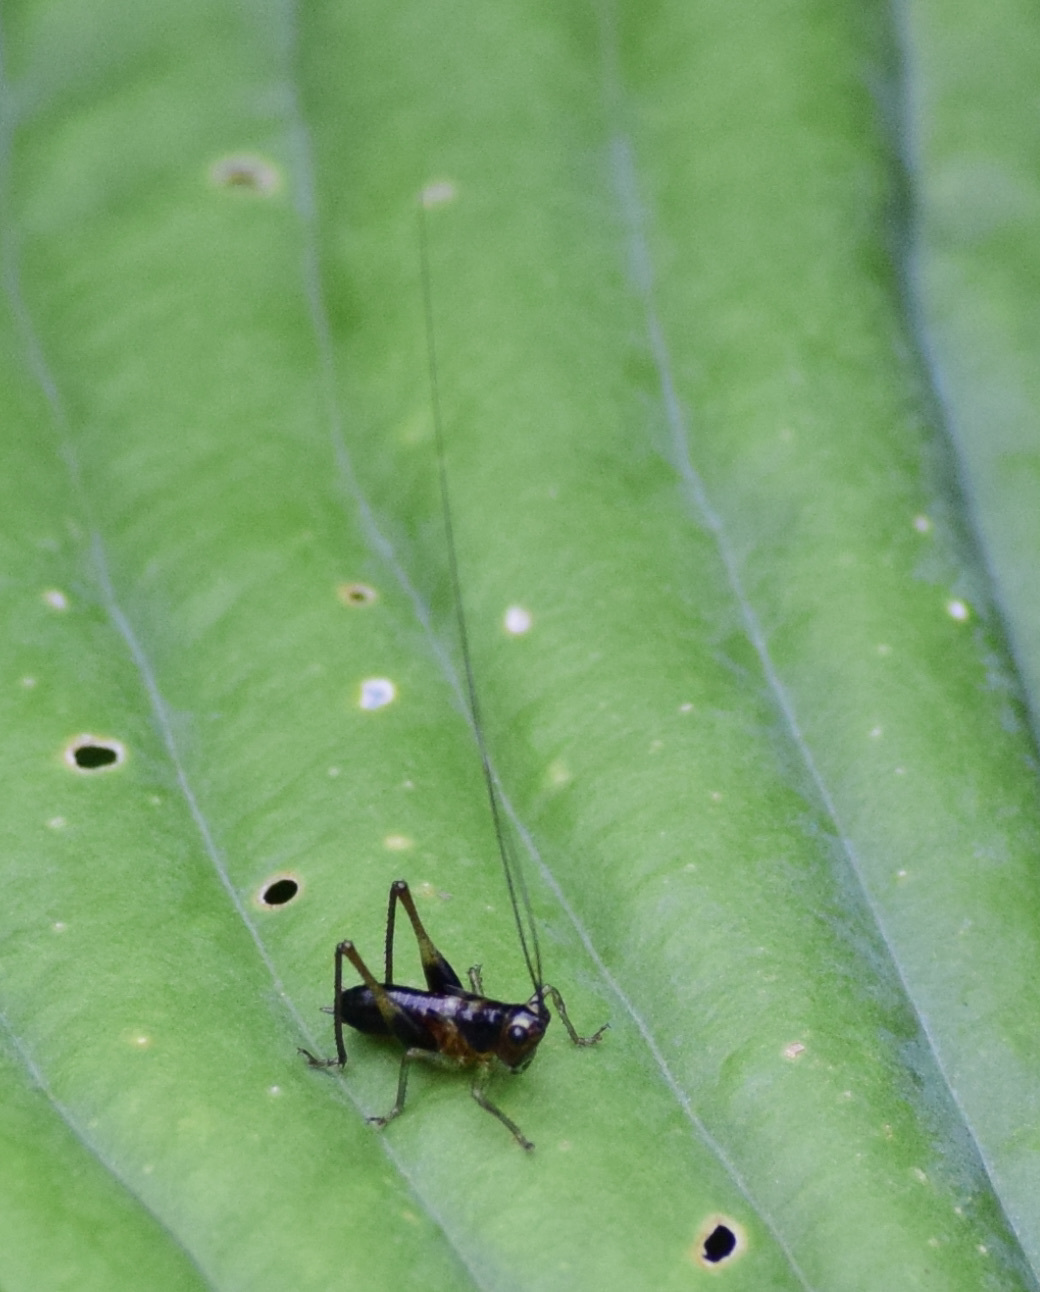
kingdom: Animalia
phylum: Arthropoda
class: Insecta
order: Orthoptera
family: Tettigoniidae
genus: Conocephalus
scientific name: Conocephalus nigropleurum
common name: Black-sided meadow katydid
